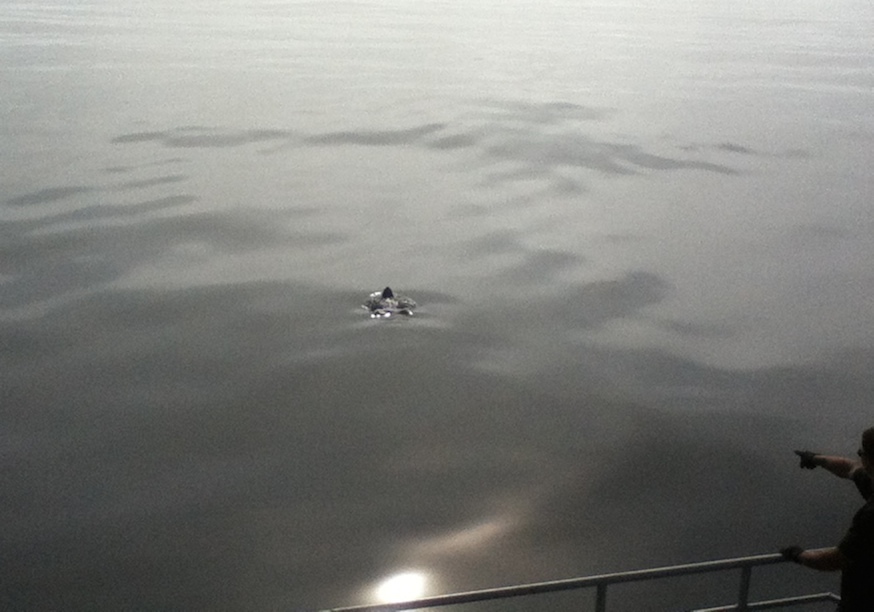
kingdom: Animalia
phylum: Chordata
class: Testudines
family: Dermochelyidae
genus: Dermochelys
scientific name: Dermochelys coriacea
